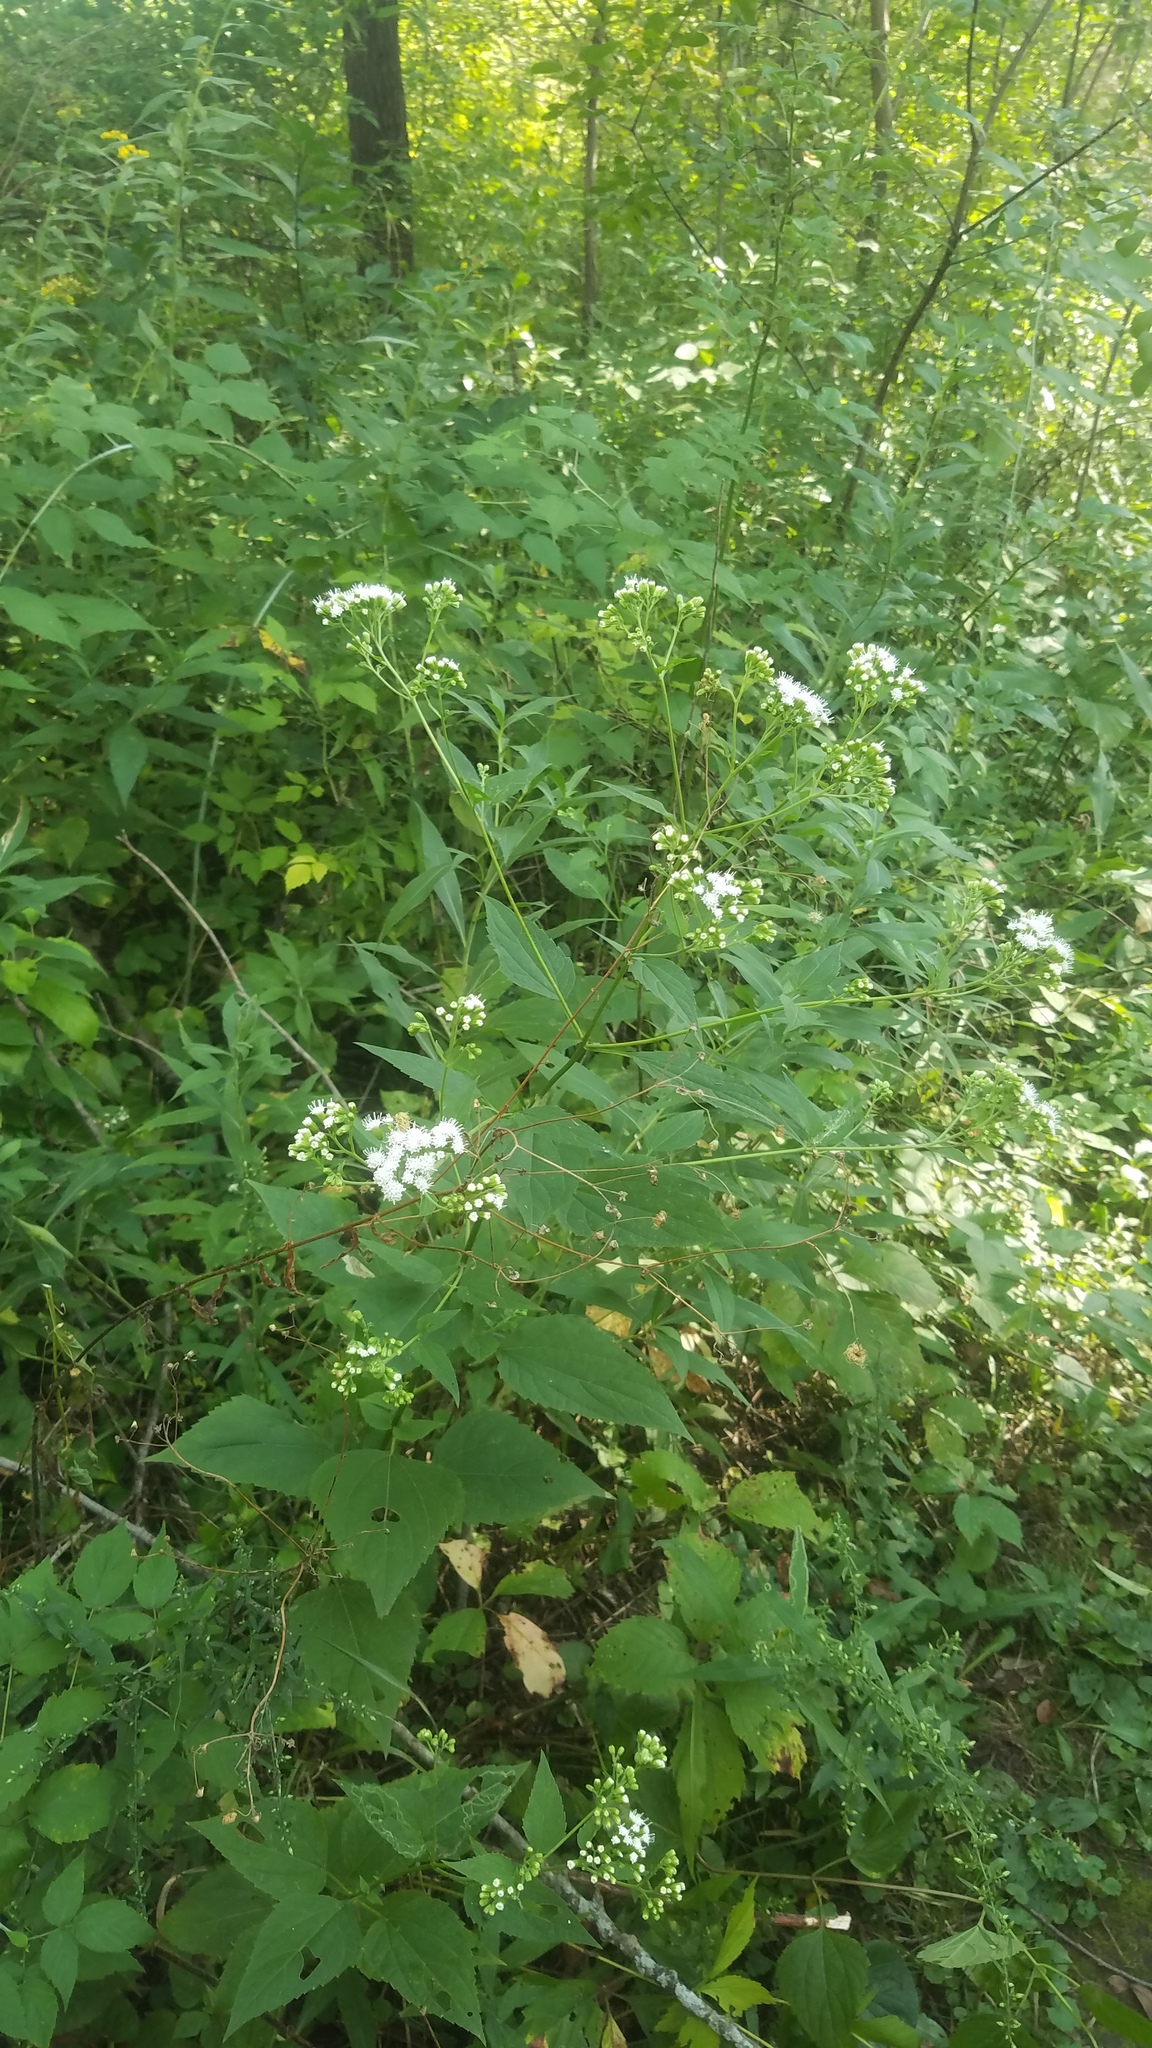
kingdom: Plantae
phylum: Tracheophyta
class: Magnoliopsida
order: Asterales
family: Asteraceae
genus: Ageratina
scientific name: Ageratina altissima
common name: White snakeroot
